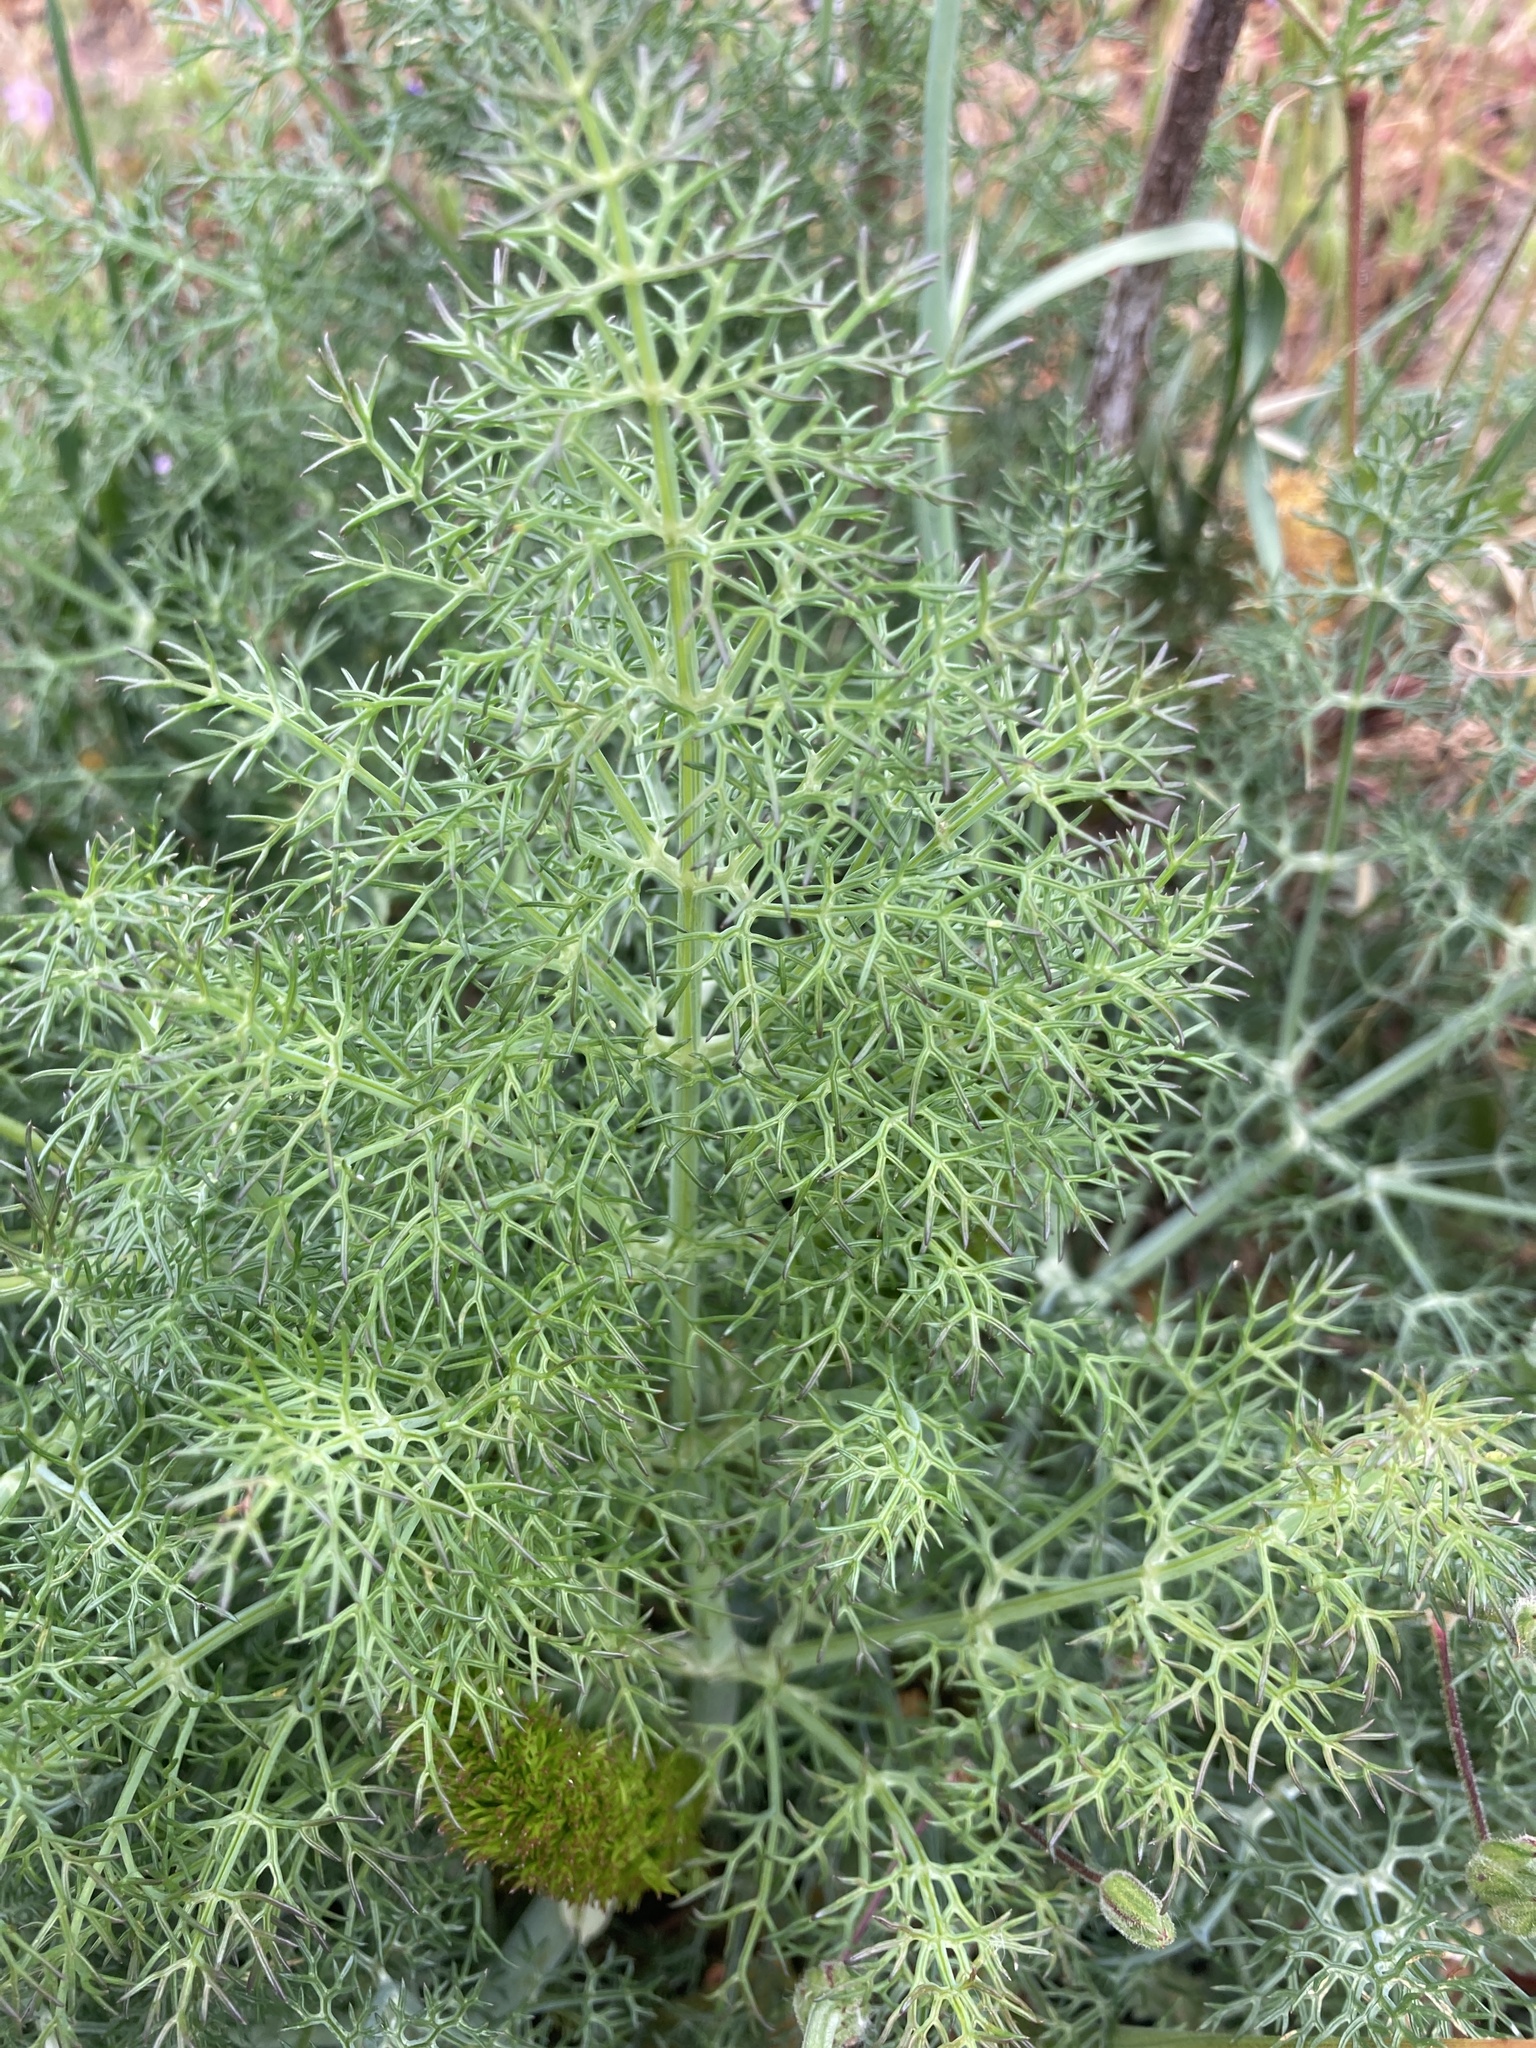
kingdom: Plantae
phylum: Tracheophyta
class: Magnoliopsida
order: Apiales
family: Apiaceae
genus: Foeniculum
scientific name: Foeniculum vulgare
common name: Fennel
